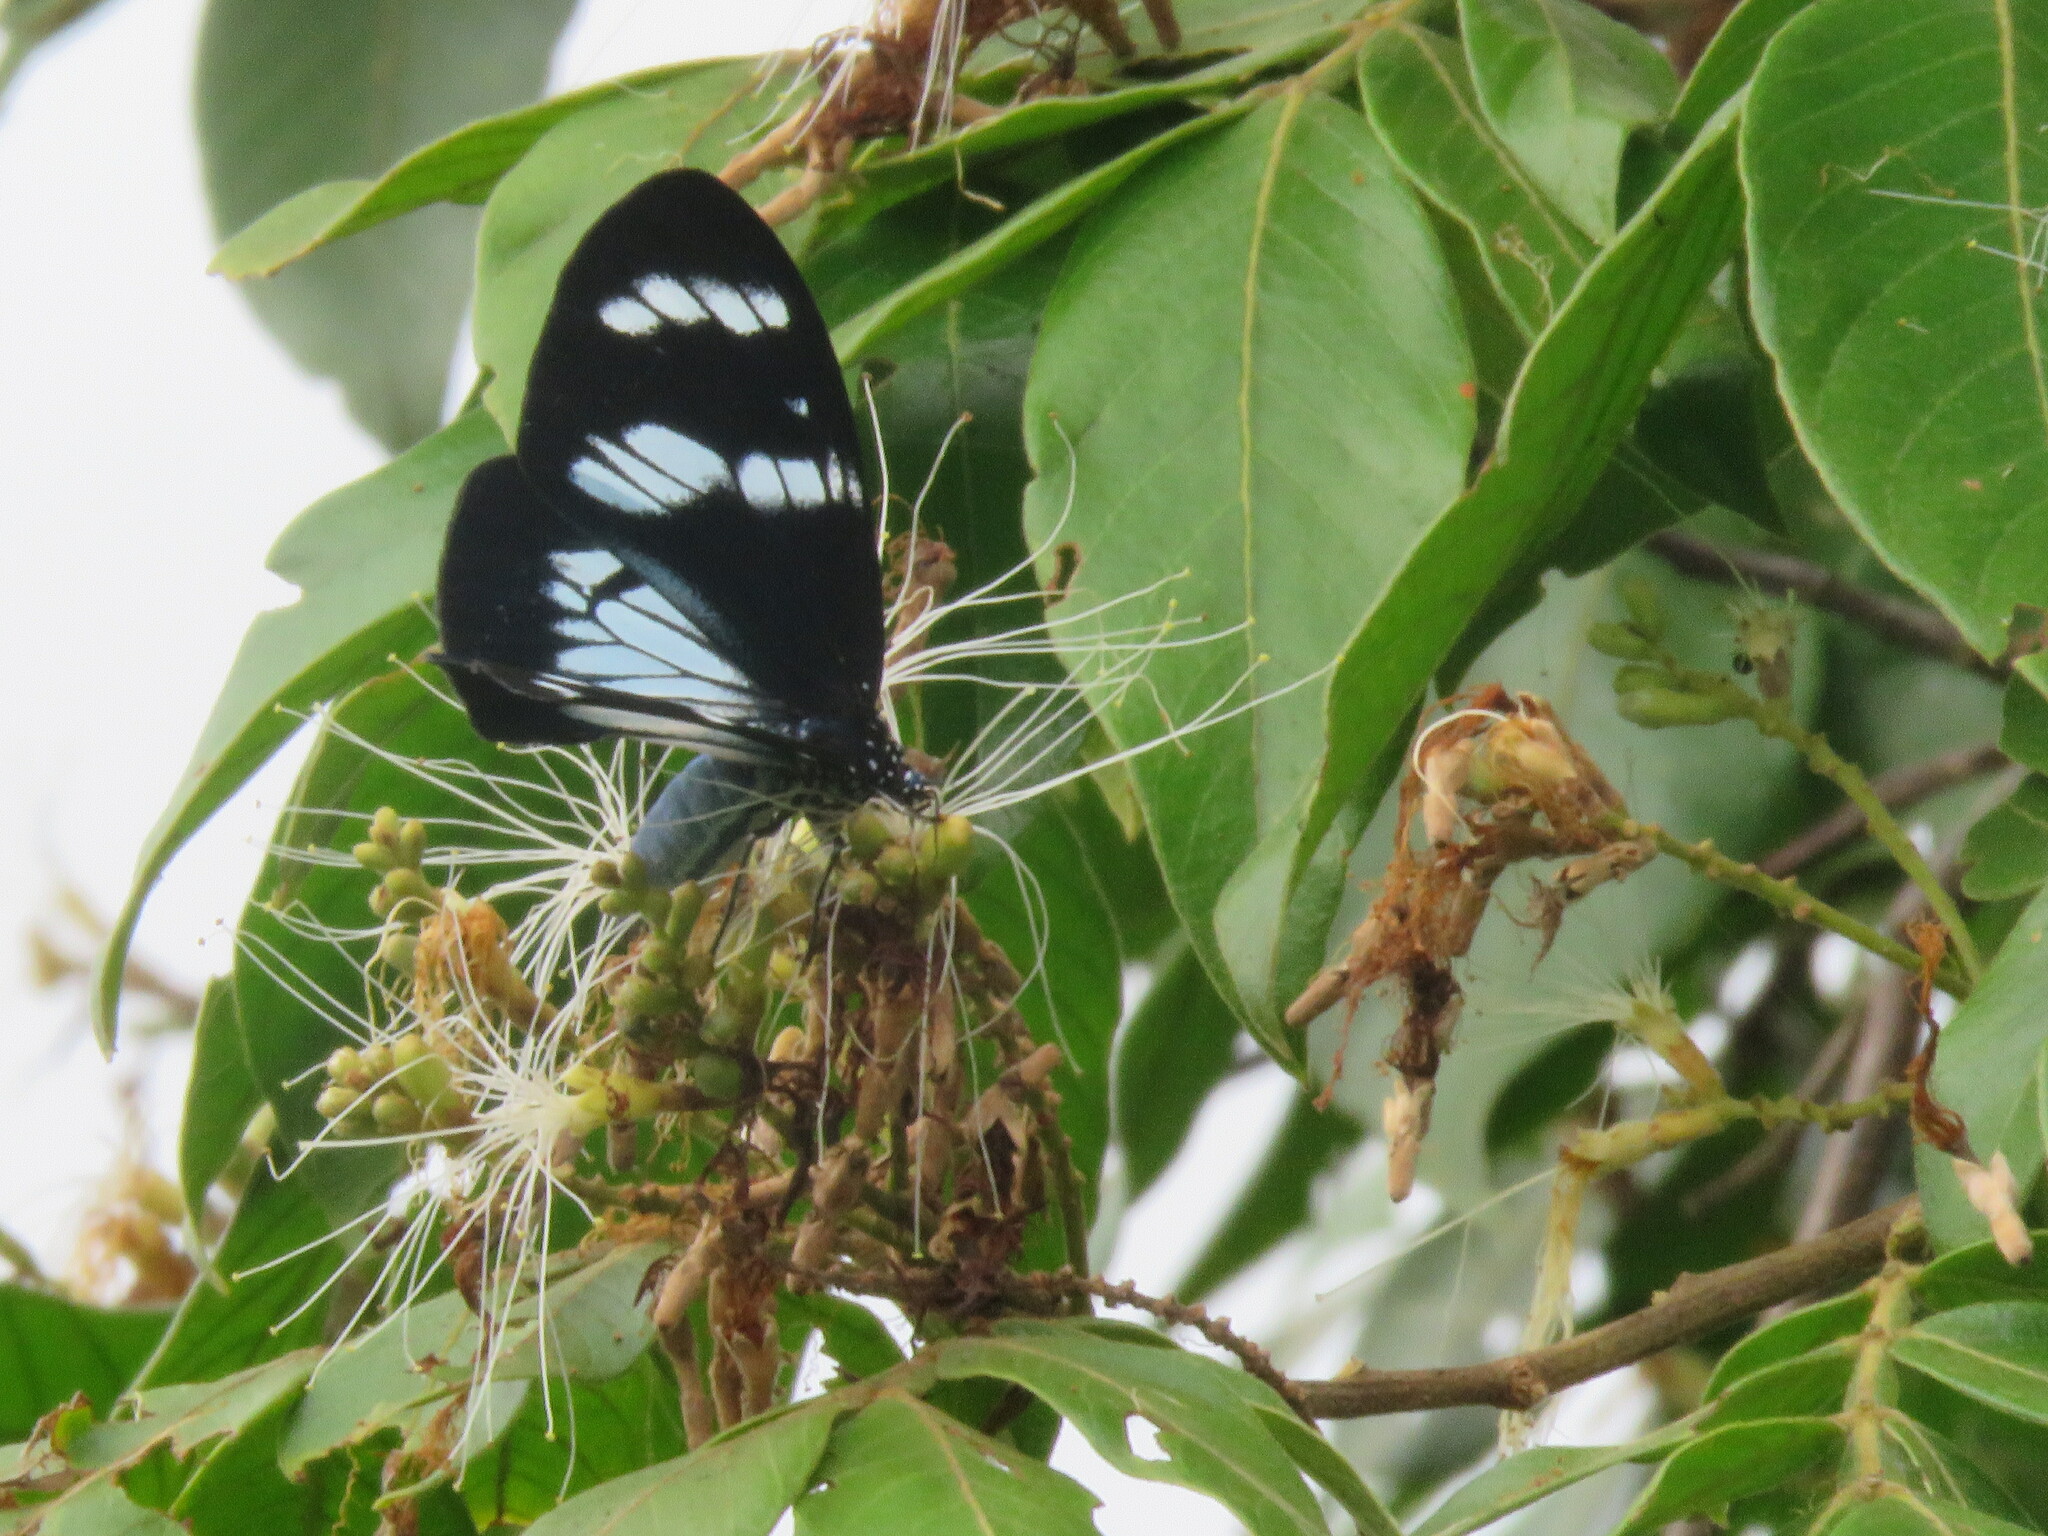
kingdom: Animalia
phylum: Arthropoda
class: Insecta
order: Lepidoptera
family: Erebidae
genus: Hypocrita
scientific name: Hypocrita plagifera
